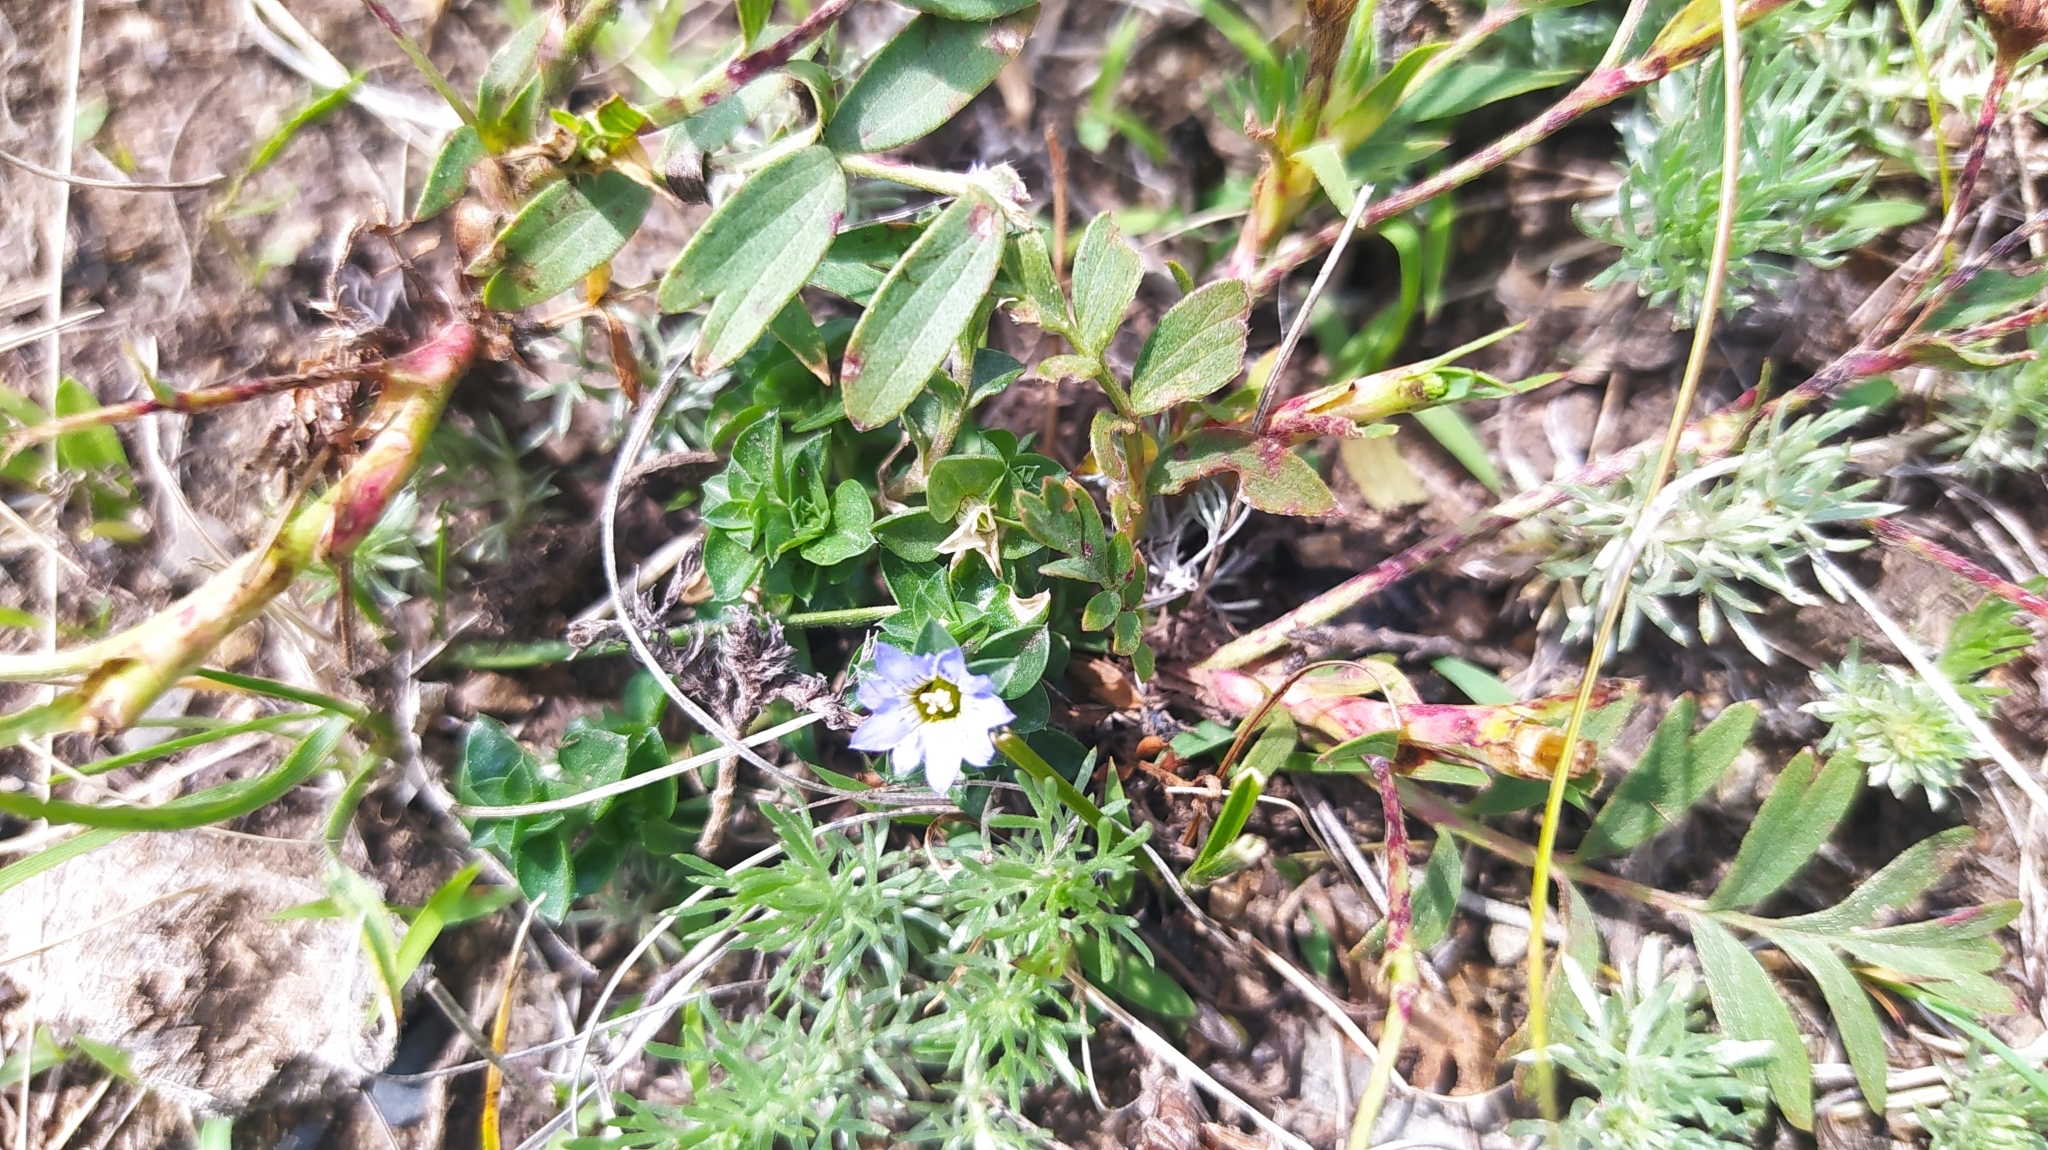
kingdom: Plantae
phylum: Tracheophyta
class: Magnoliopsida
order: Gentianales
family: Gentianaceae
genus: Gentiana
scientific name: Gentiana squarrosa
